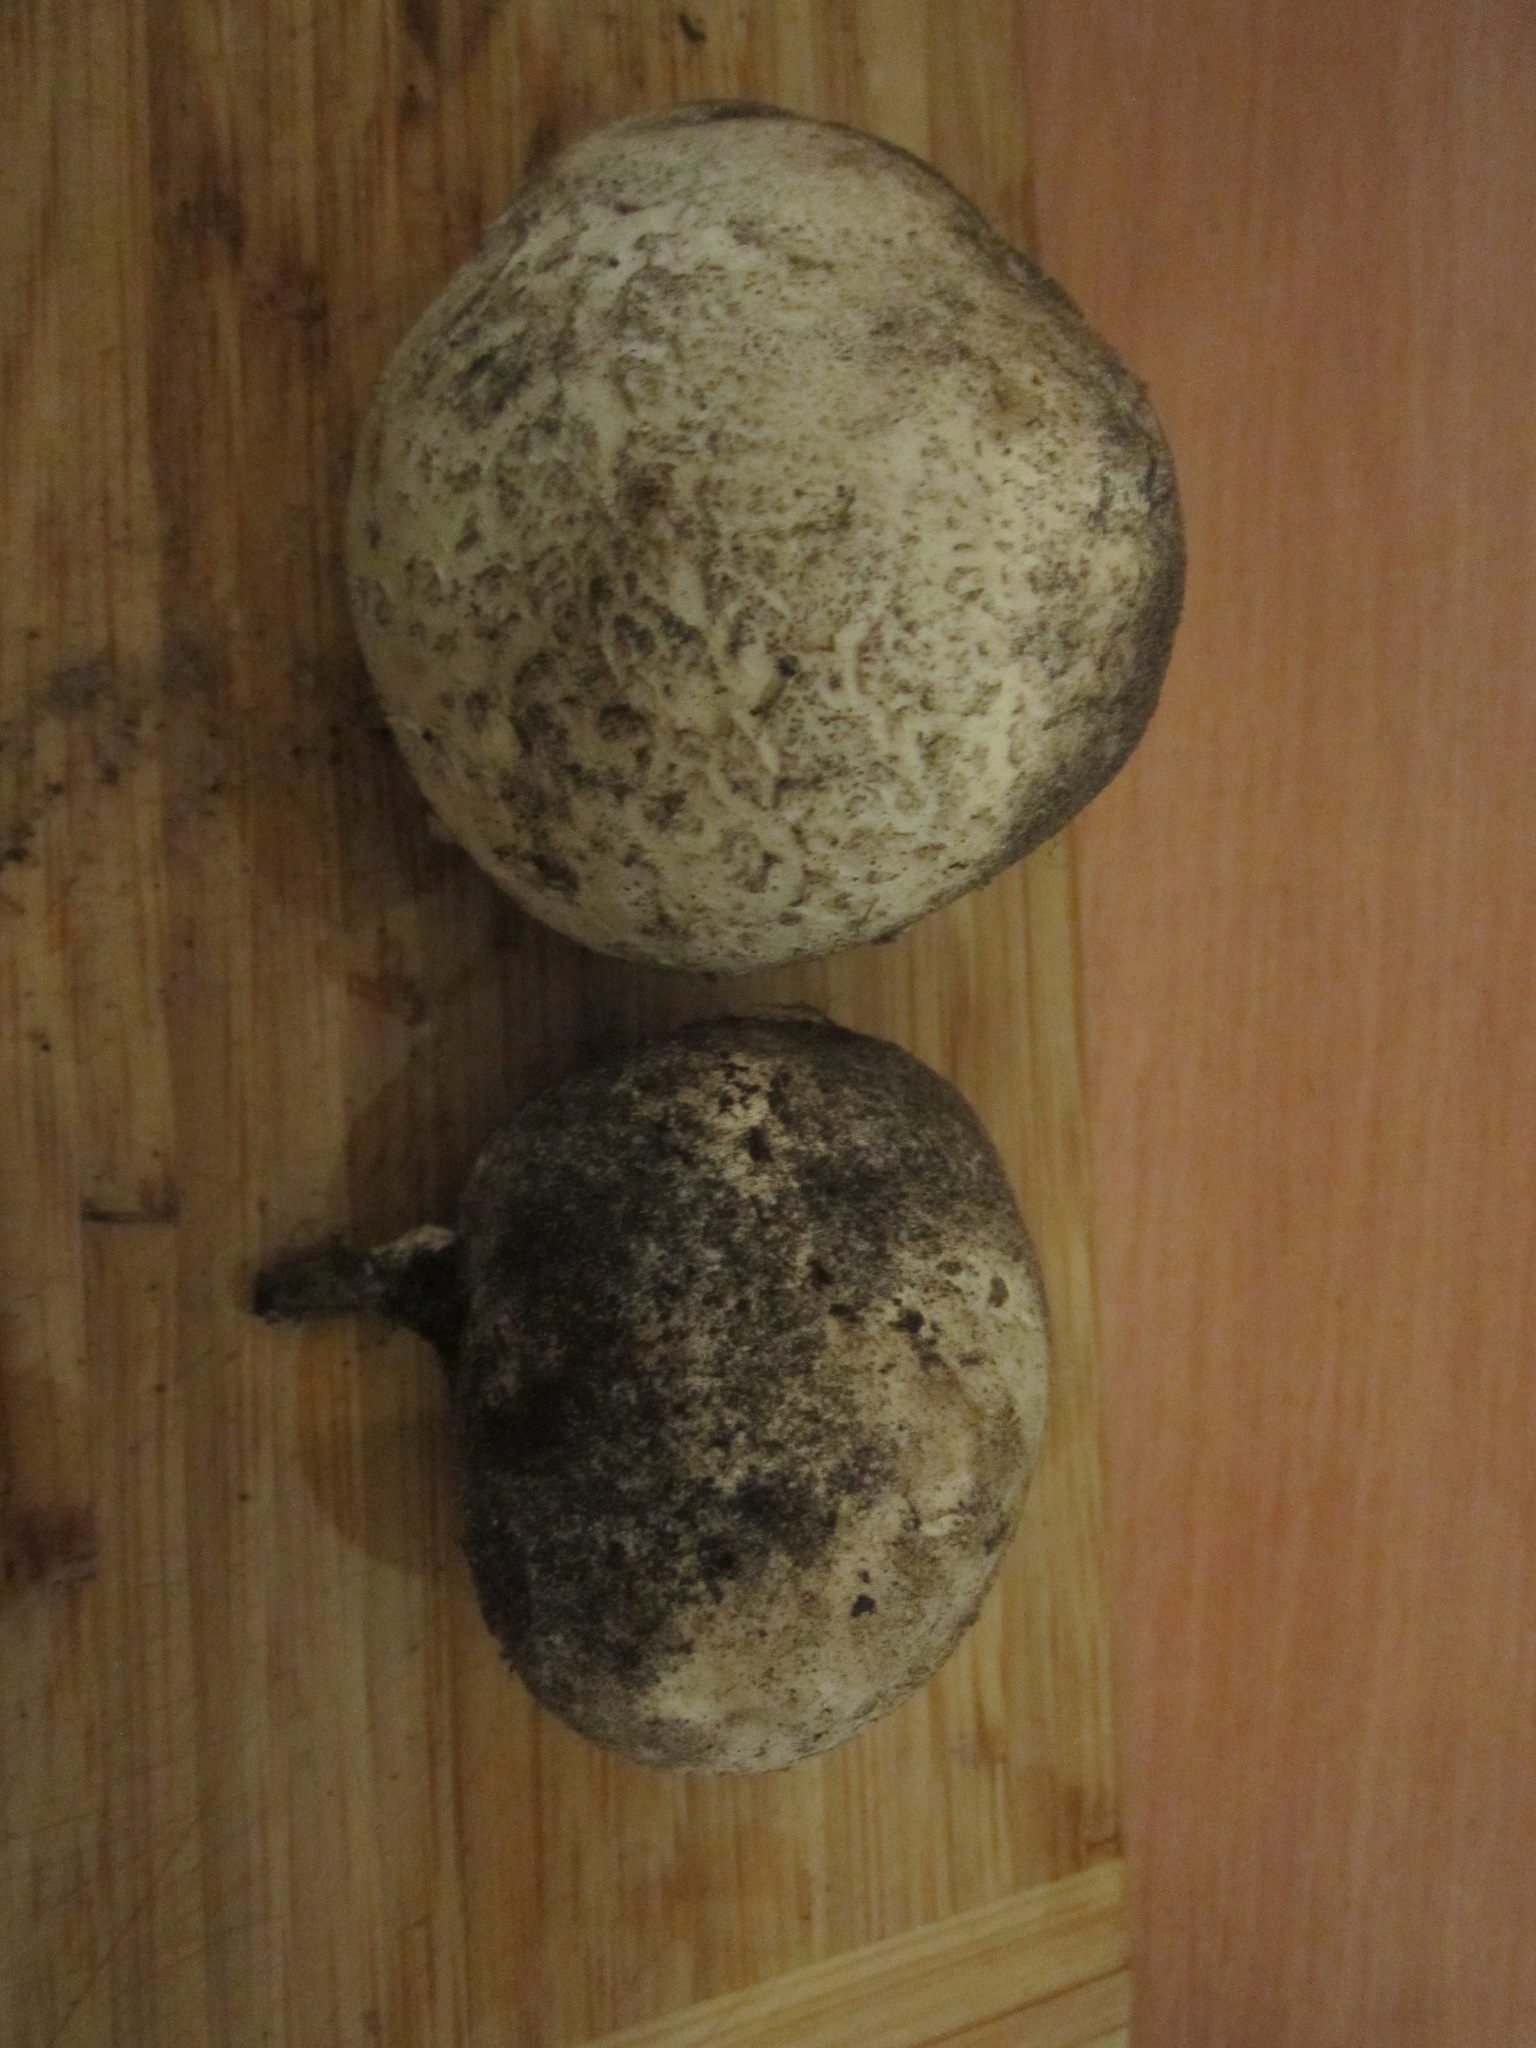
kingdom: Fungi
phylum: Basidiomycota
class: Agaricomycetes
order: Agaricales
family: Agaricaceae
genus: Mycenastrum
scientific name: Mycenastrum corium
